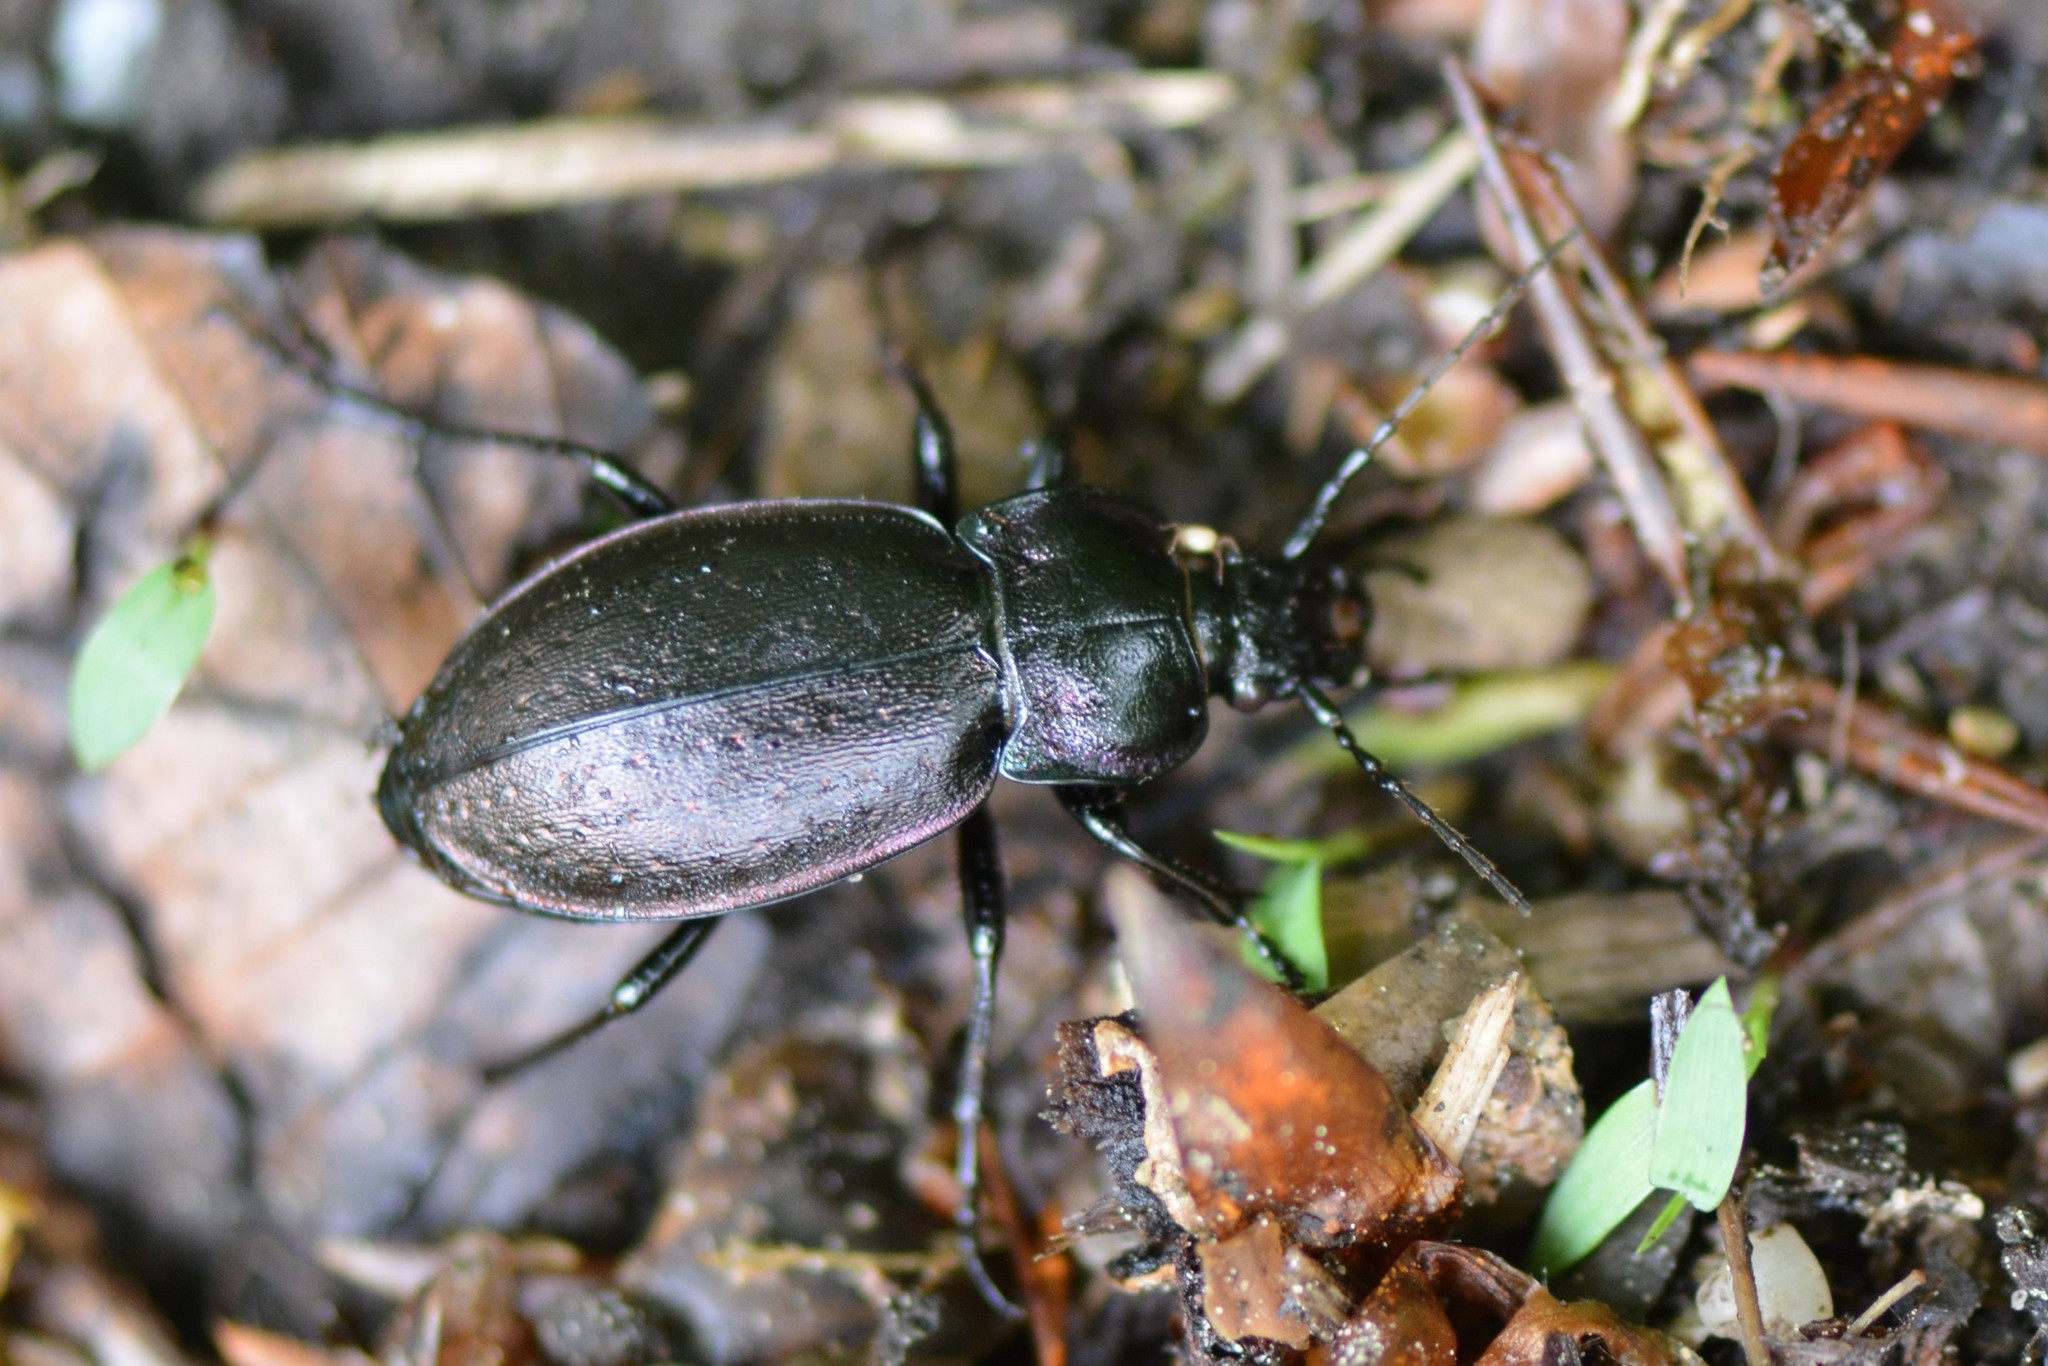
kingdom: Animalia
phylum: Arthropoda
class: Insecta
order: Coleoptera
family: Carabidae
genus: Carabus
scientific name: Carabus nemoralis
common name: European ground beetle
